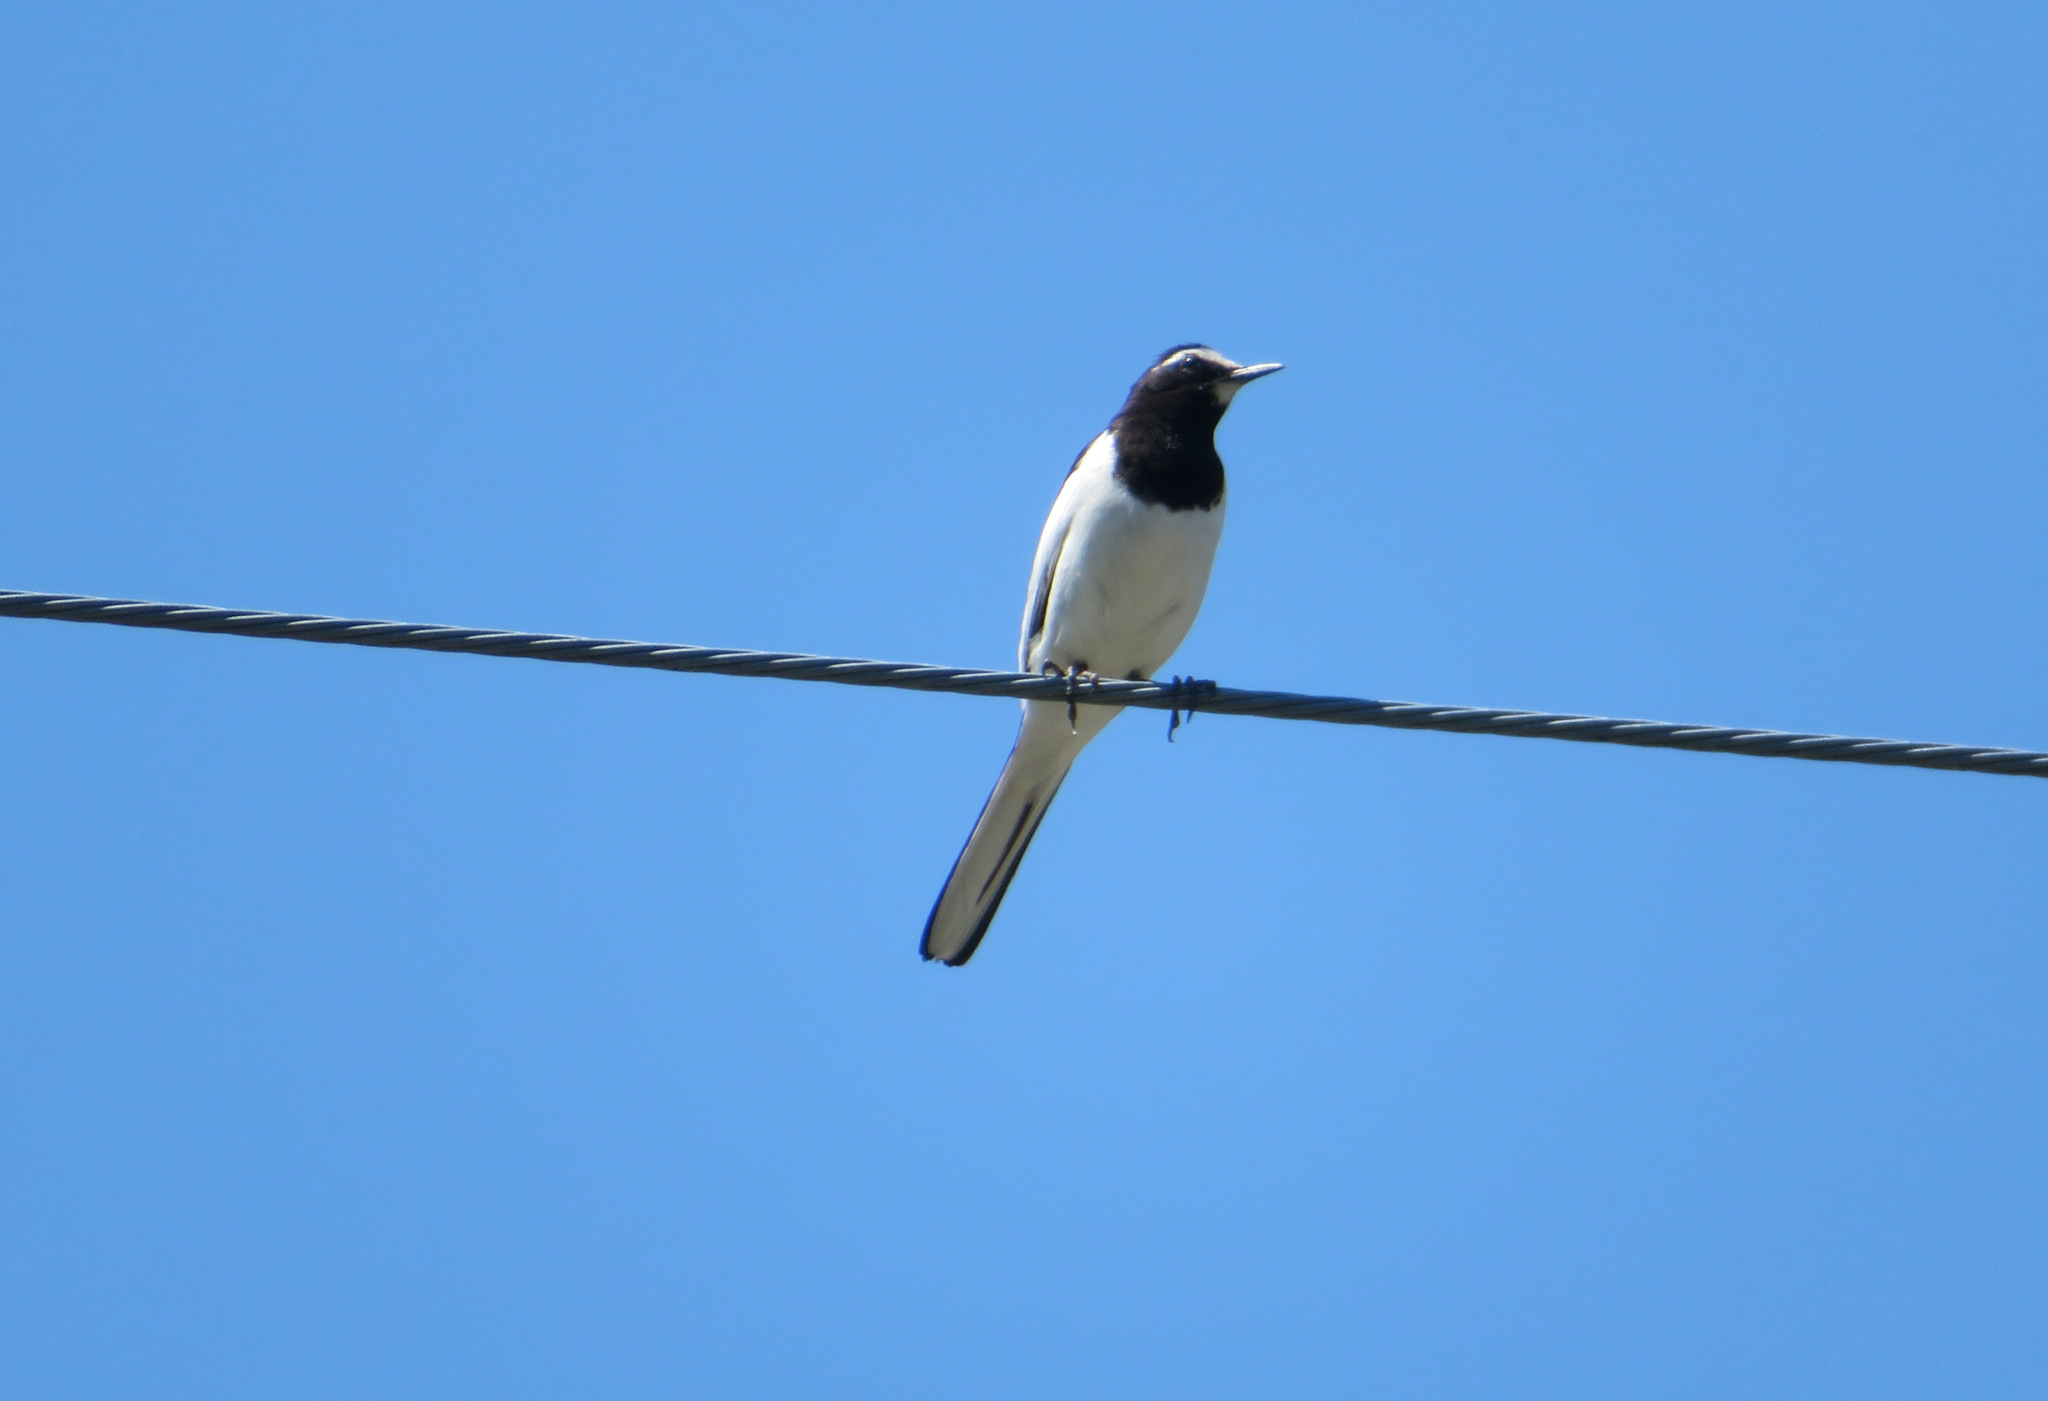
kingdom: Animalia
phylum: Chordata
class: Aves
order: Passeriformes
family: Motacillidae
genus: Motacilla
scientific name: Motacilla grandis
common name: Japanese wagtail
